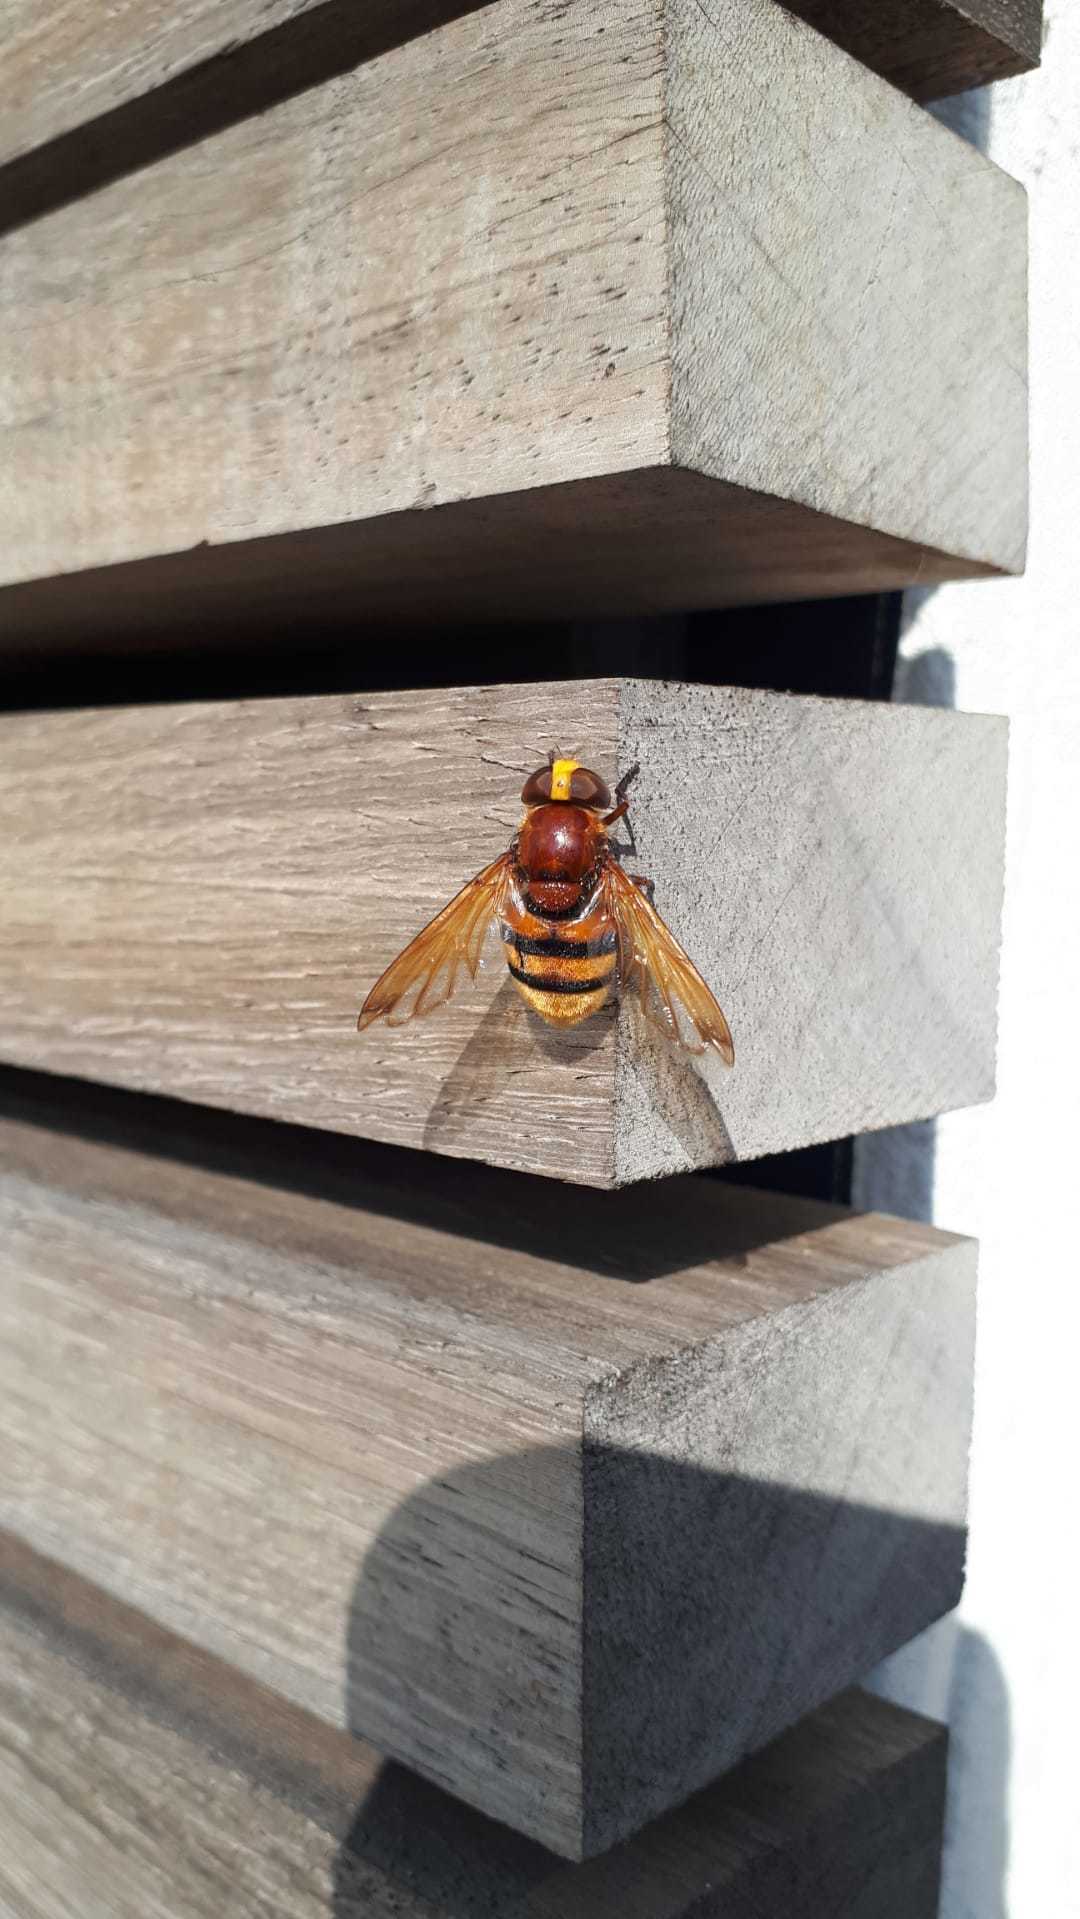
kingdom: Animalia
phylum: Arthropoda
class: Insecta
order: Diptera
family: Syrphidae
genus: Volucella
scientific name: Volucella zonaria
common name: Hornet hoverfly
